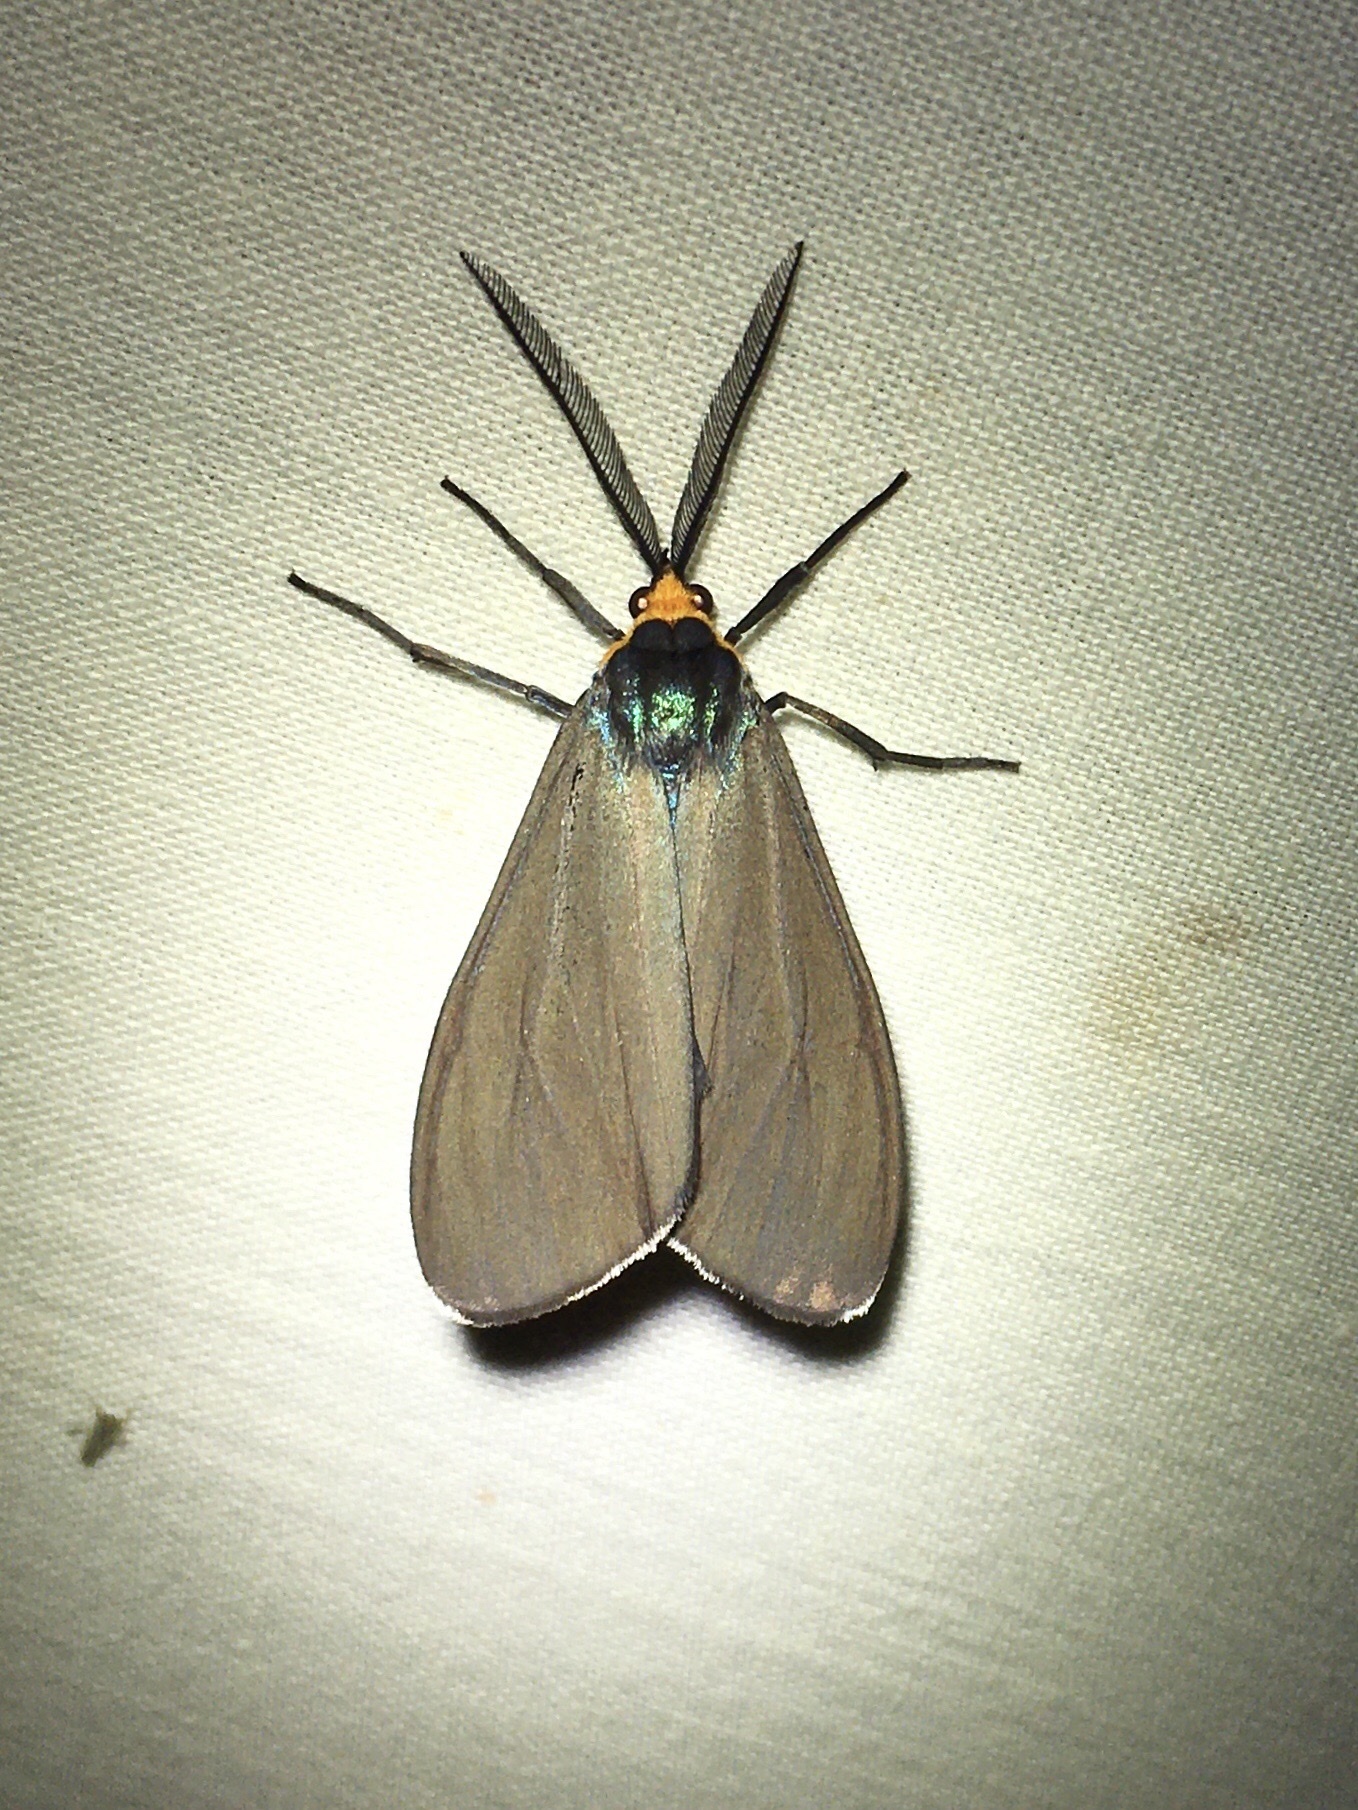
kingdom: Animalia
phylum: Arthropoda
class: Insecta
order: Lepidoptera
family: Erebidae
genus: Ctenucha
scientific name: Ctenucha virginica
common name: Virginia ctenucha moth
